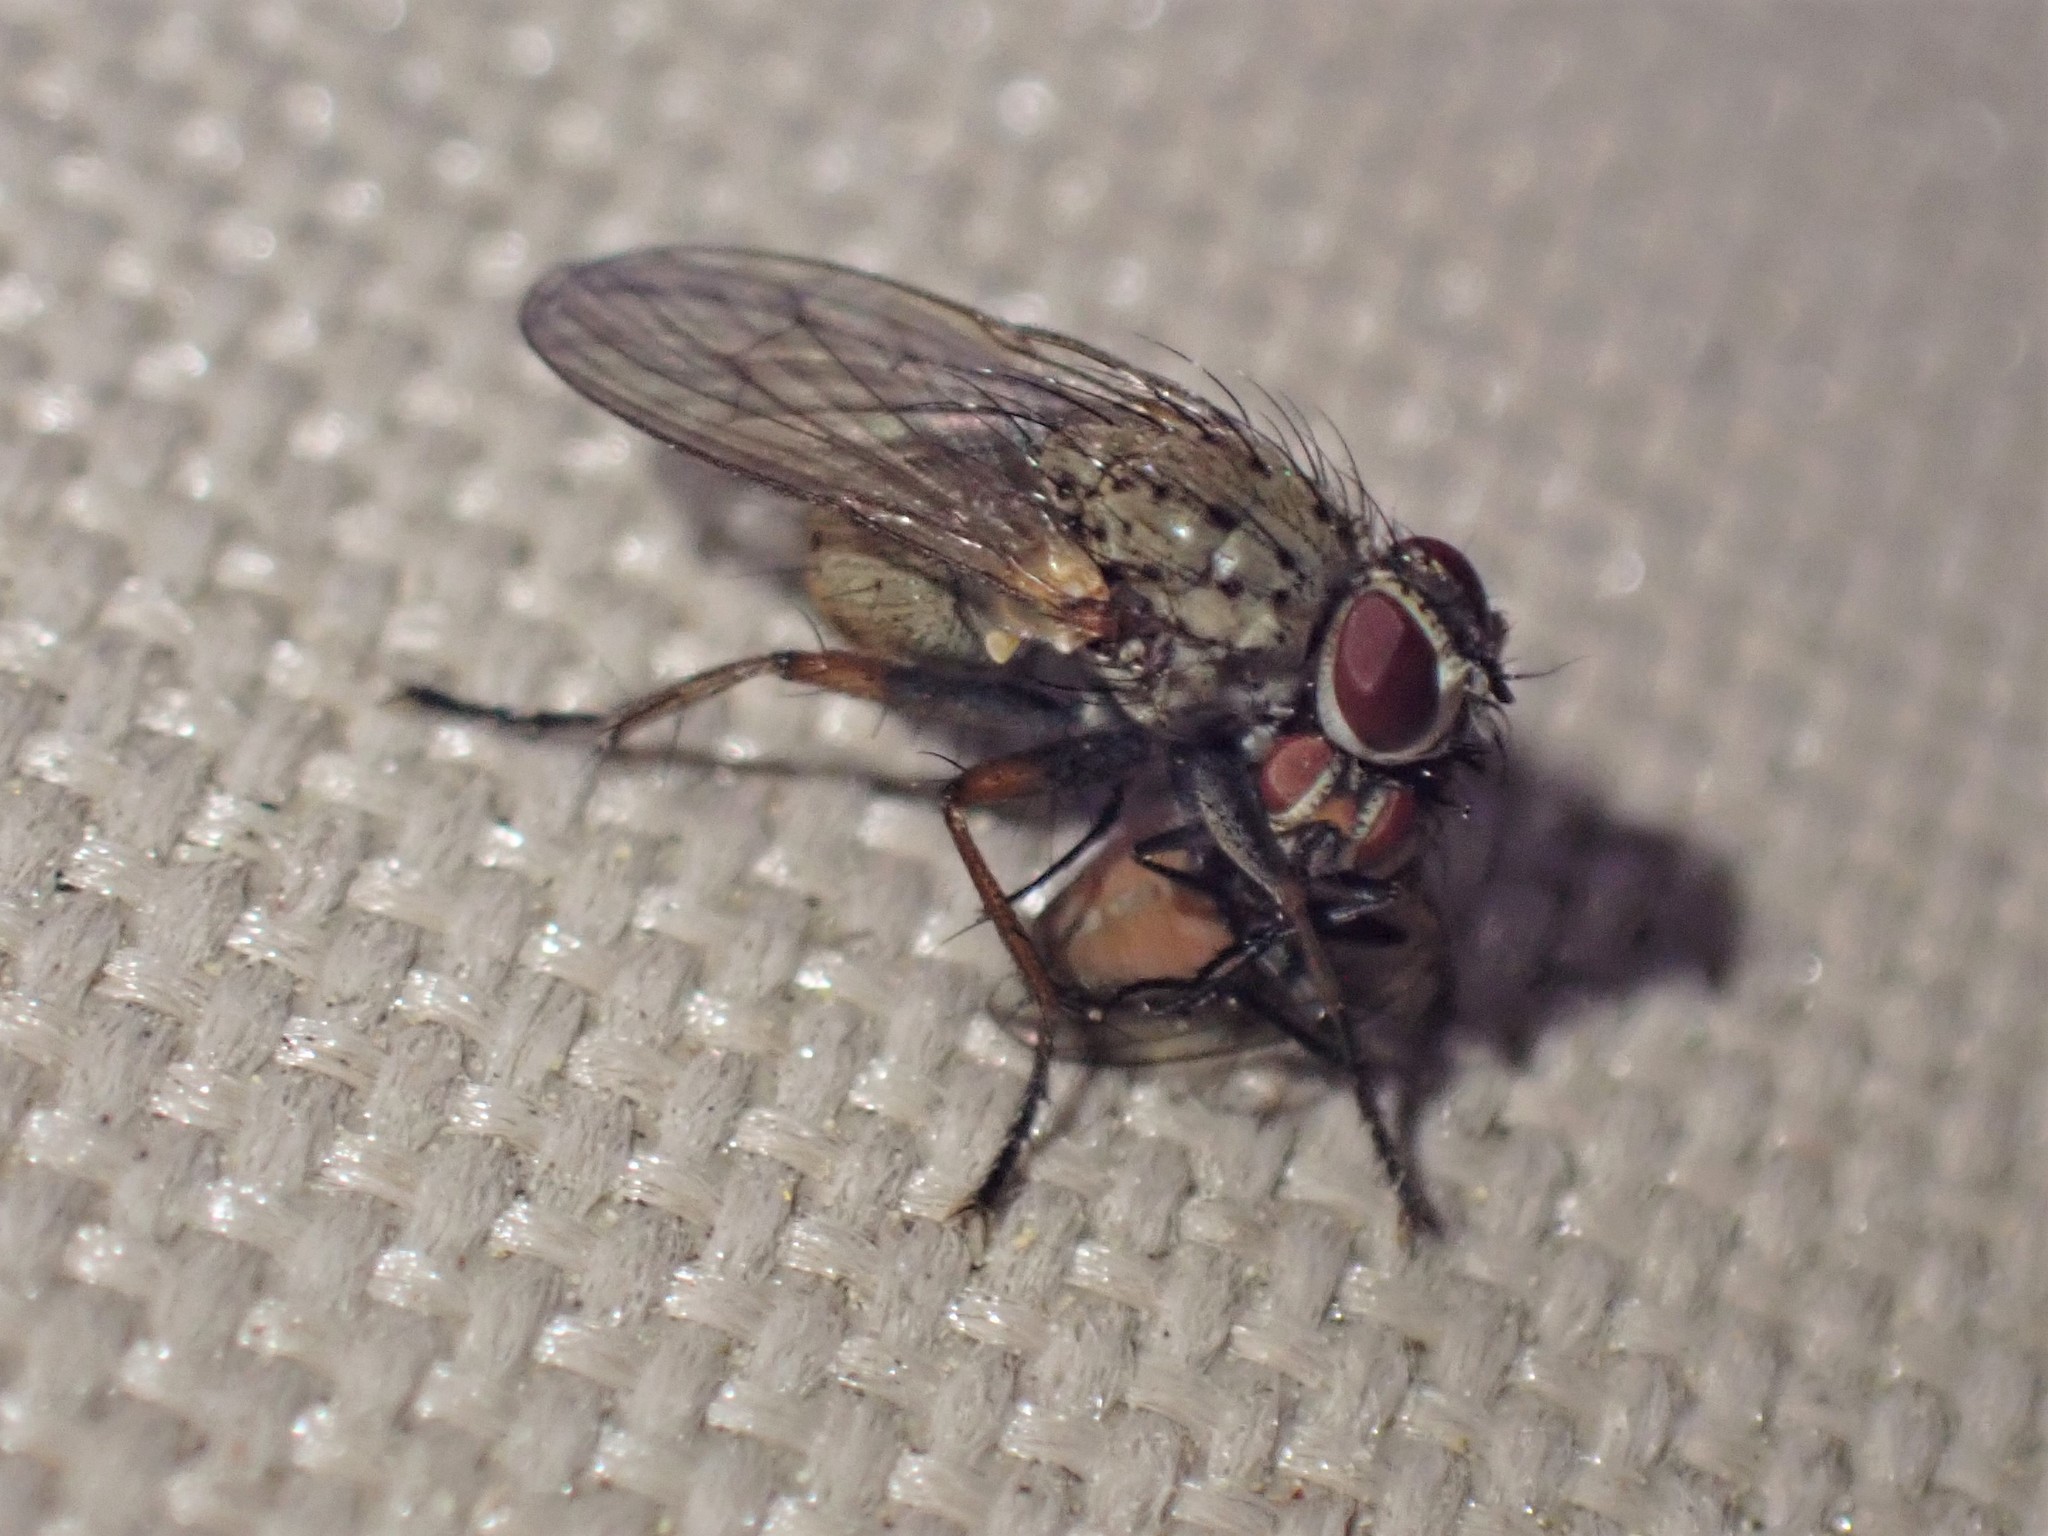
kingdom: Animalia
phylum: Arthropoda
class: Insecta
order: Diptera
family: Muscidae
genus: Coenosia
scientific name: Coenosia tigrina
